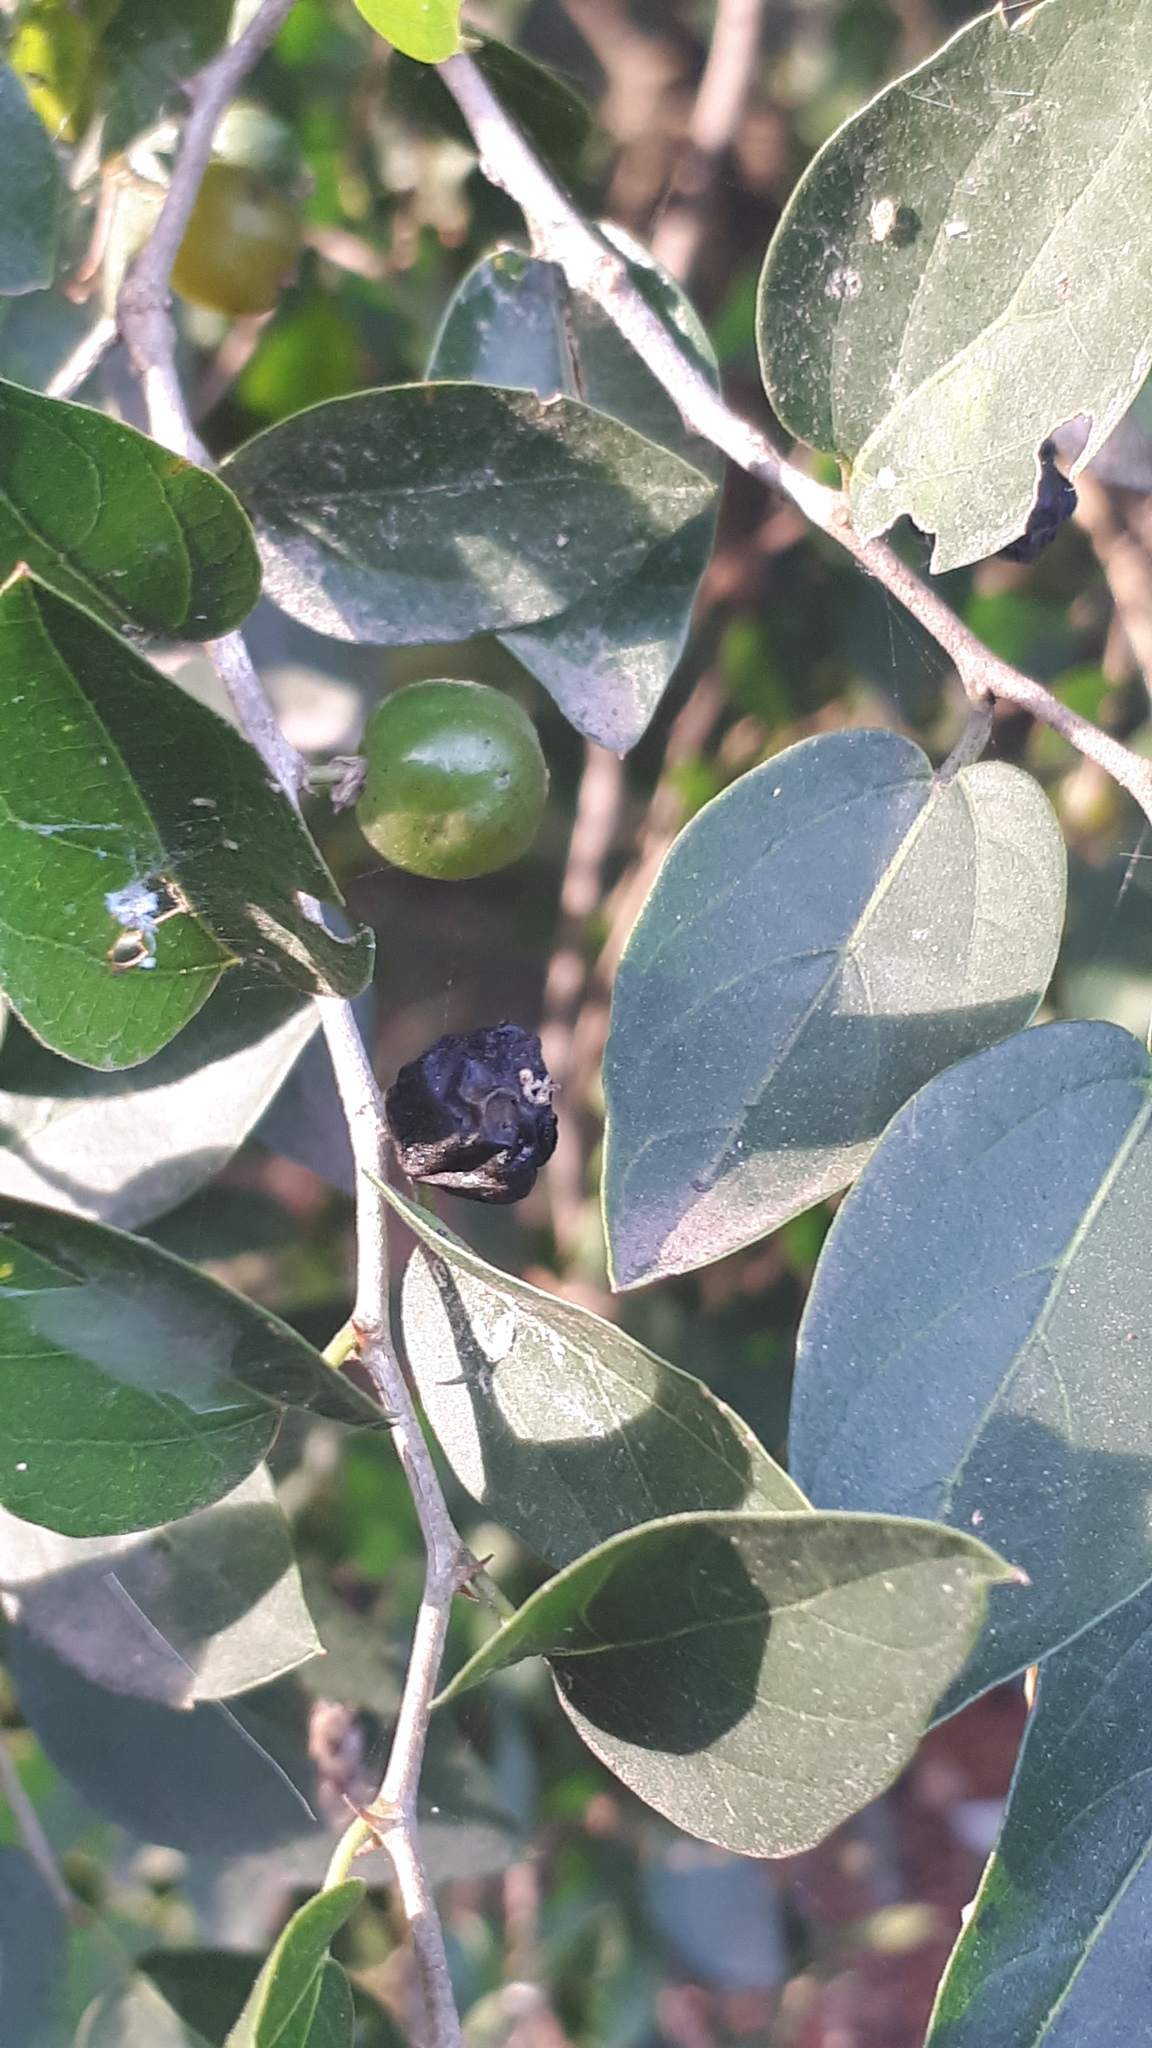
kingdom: Plantae
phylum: Tracheophyta
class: Magnoliopsida
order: Rosales
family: Cannabaceae
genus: Celtis
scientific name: Celtis tala
